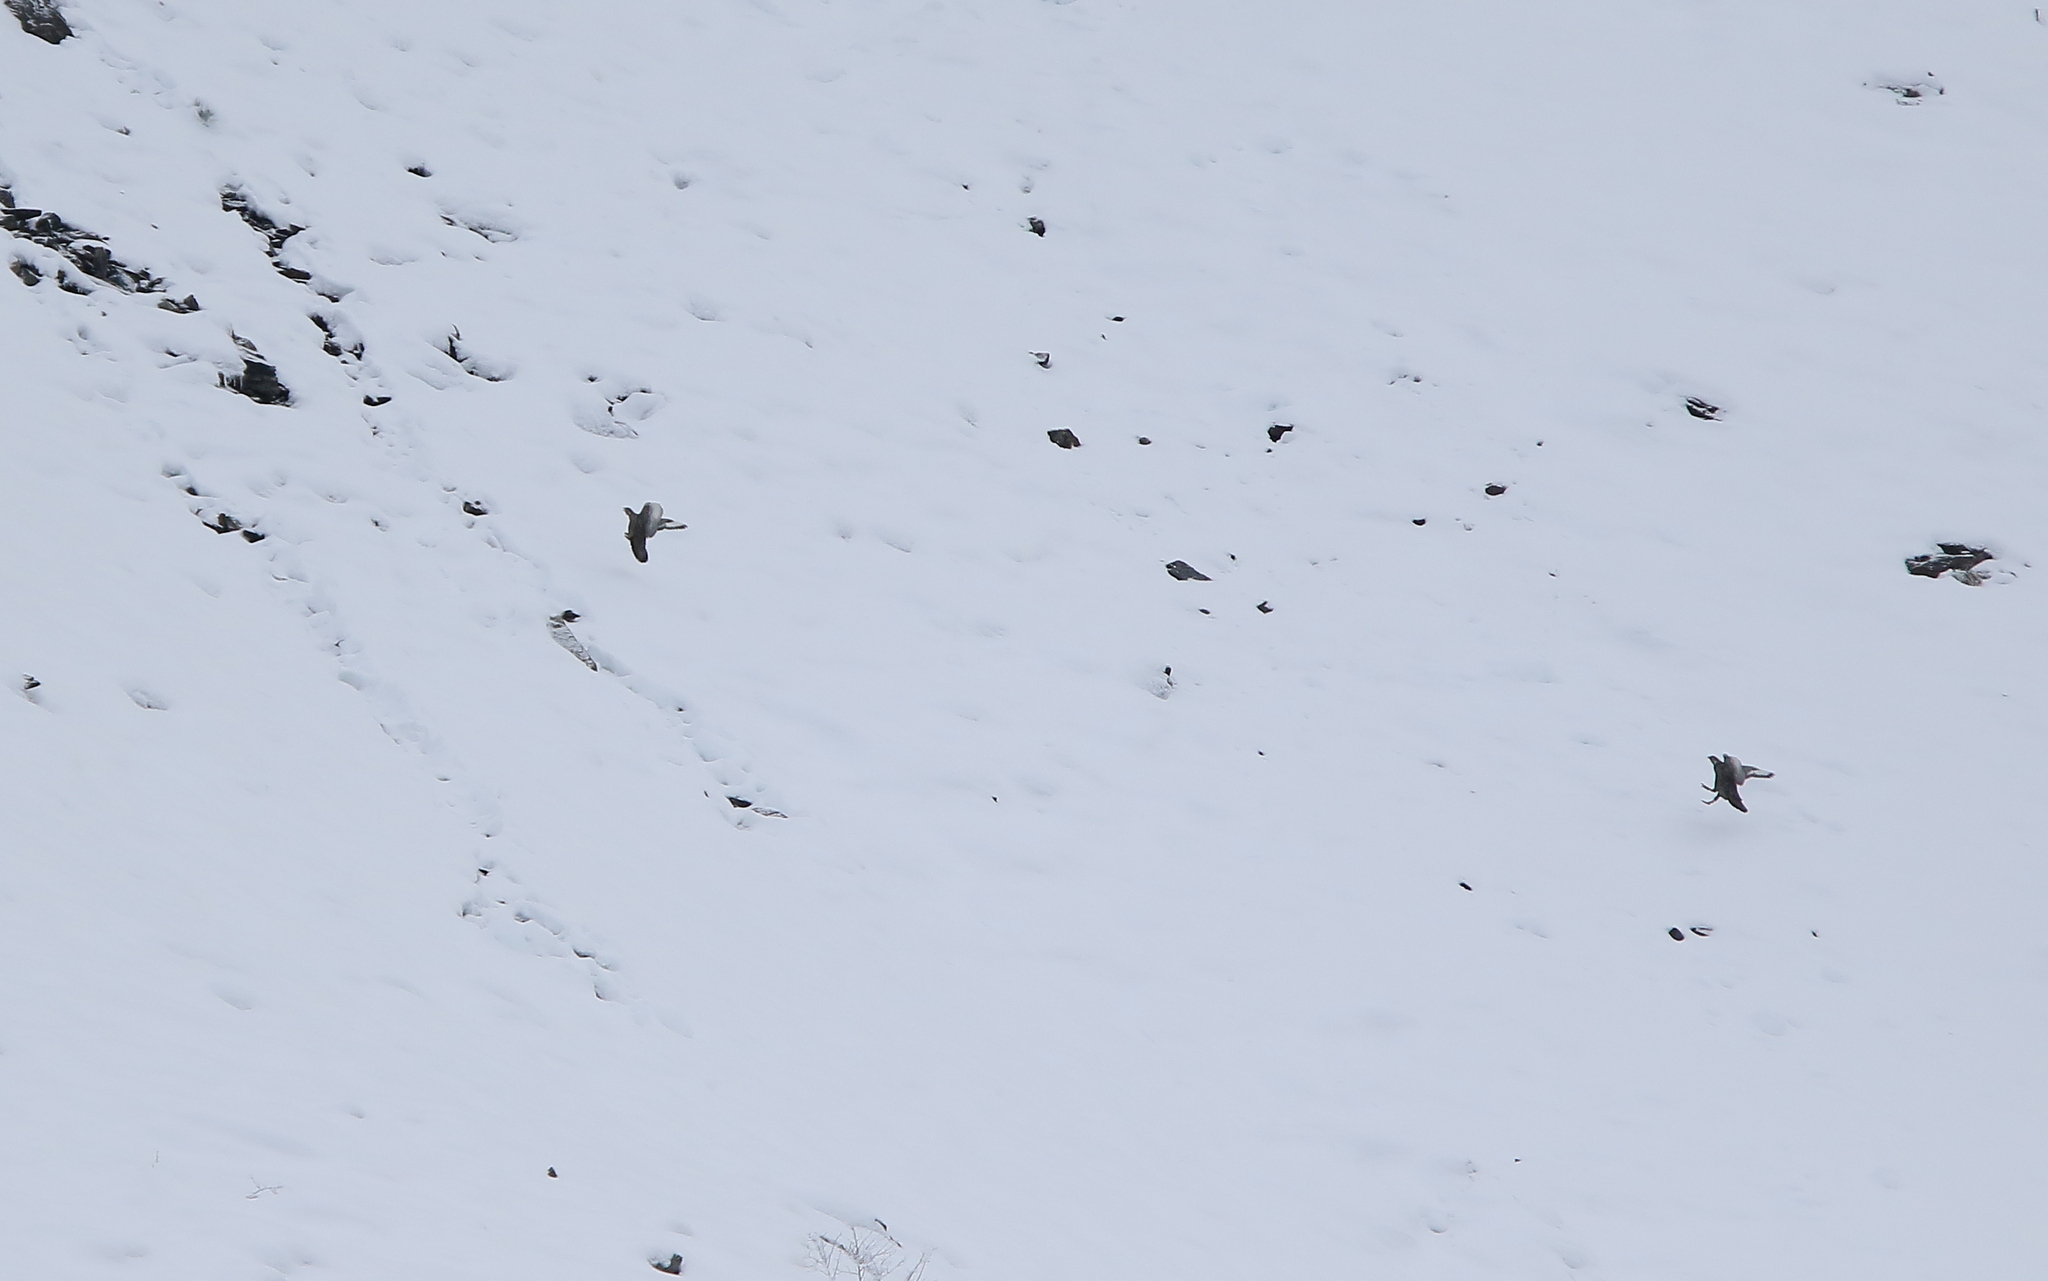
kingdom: Animalia
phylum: Chordata
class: Aves
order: Galliformes
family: Phasianidae
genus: Tetraogallus
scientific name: Tetraogallus caucasicus
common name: Caucasian snowcock
